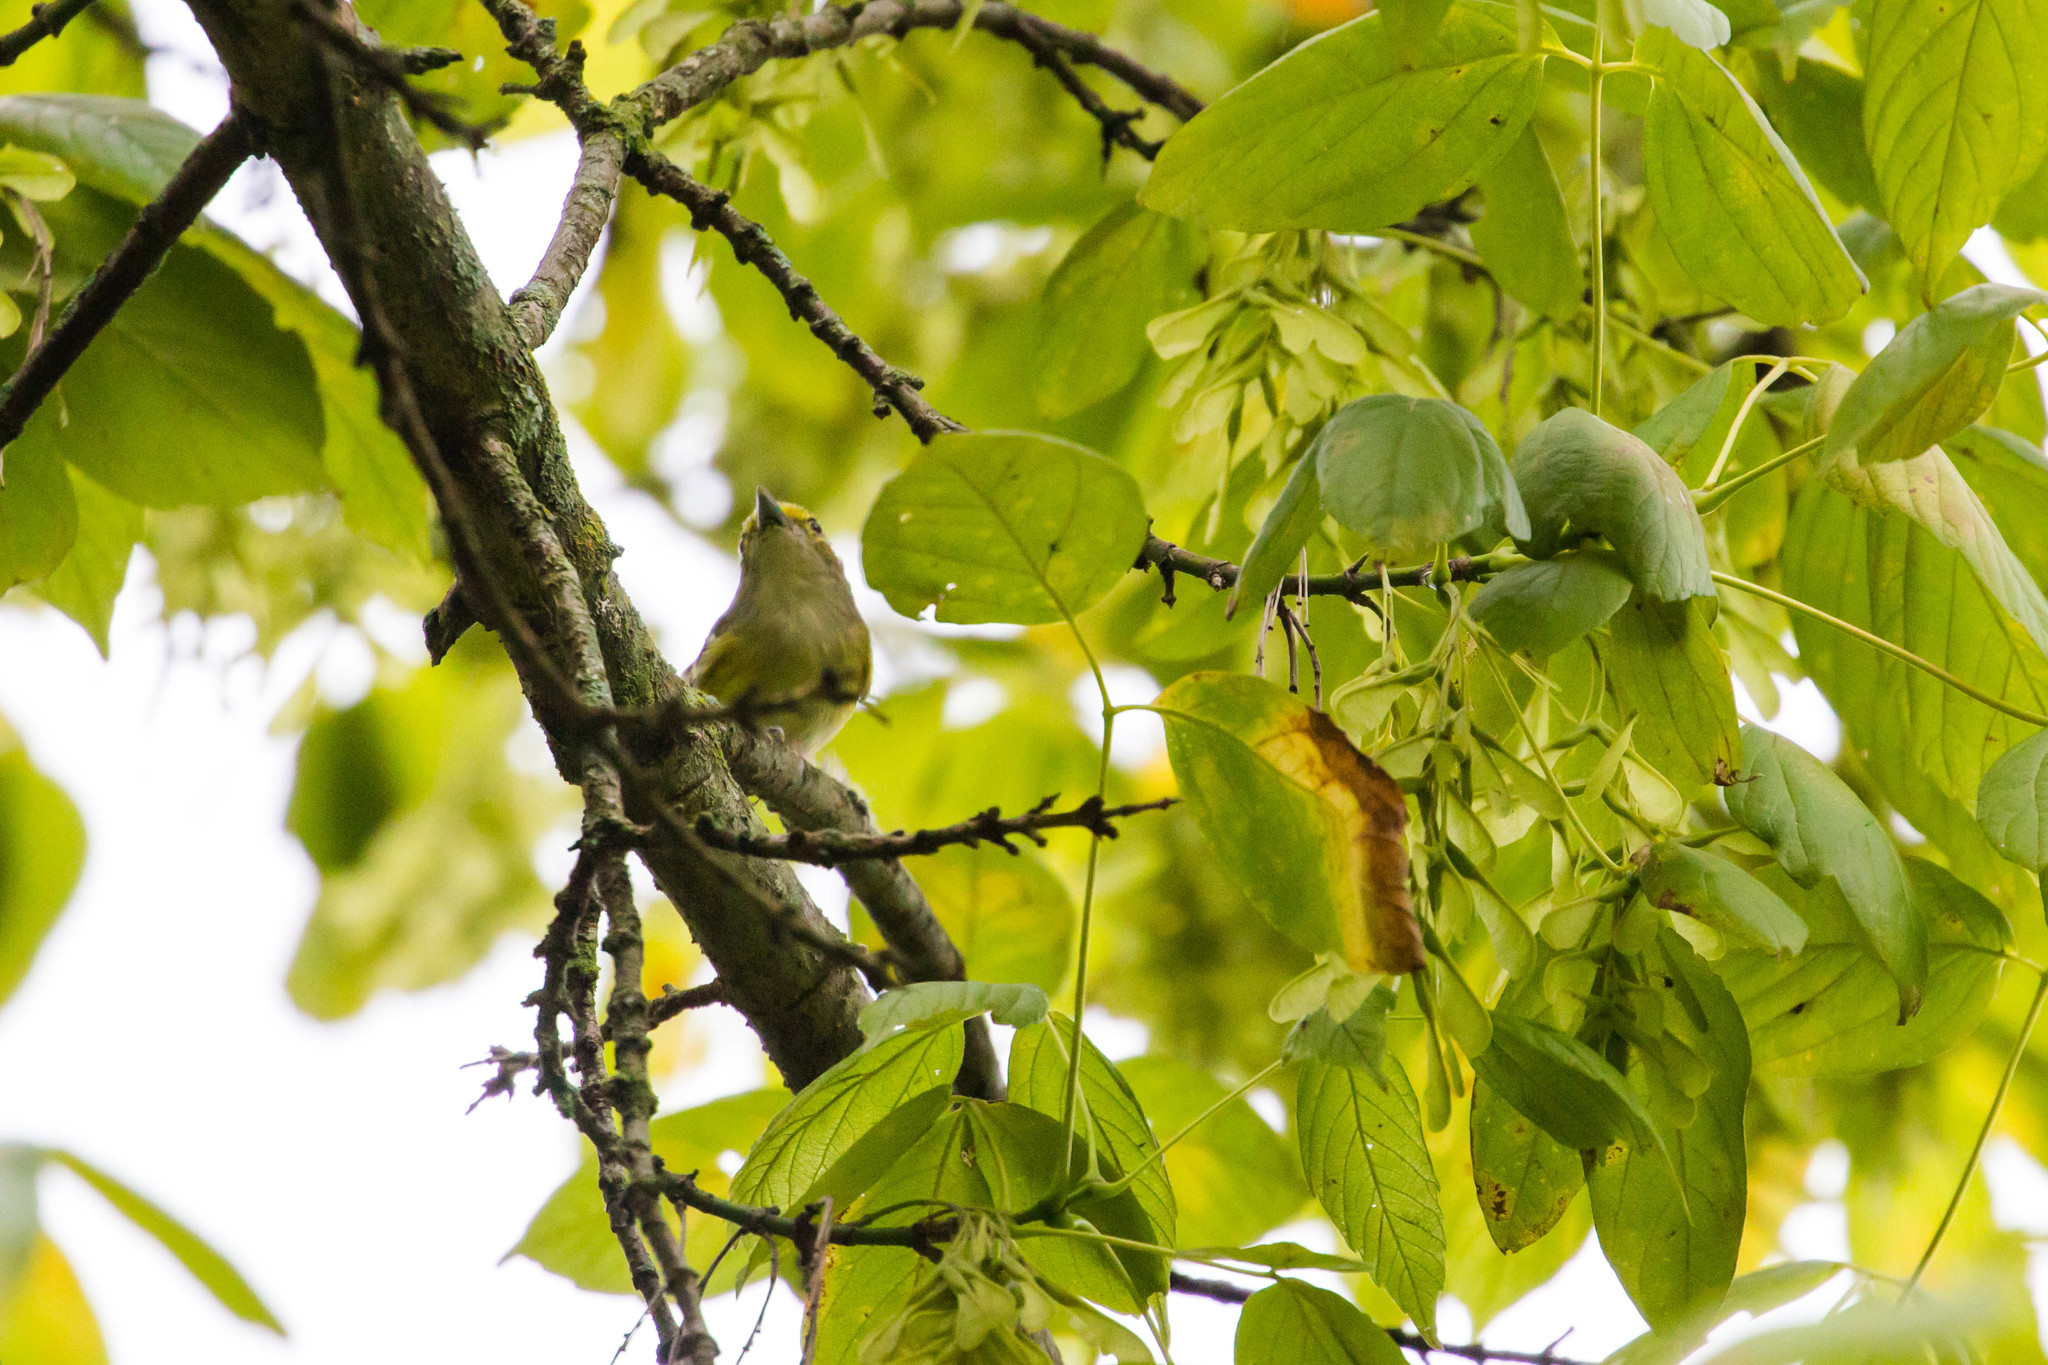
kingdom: Animalia
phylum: Chordata
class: Aves
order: Passeriformes
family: Vireonidae
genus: Vireo
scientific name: Vireo griseus
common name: White-eyed vireo
